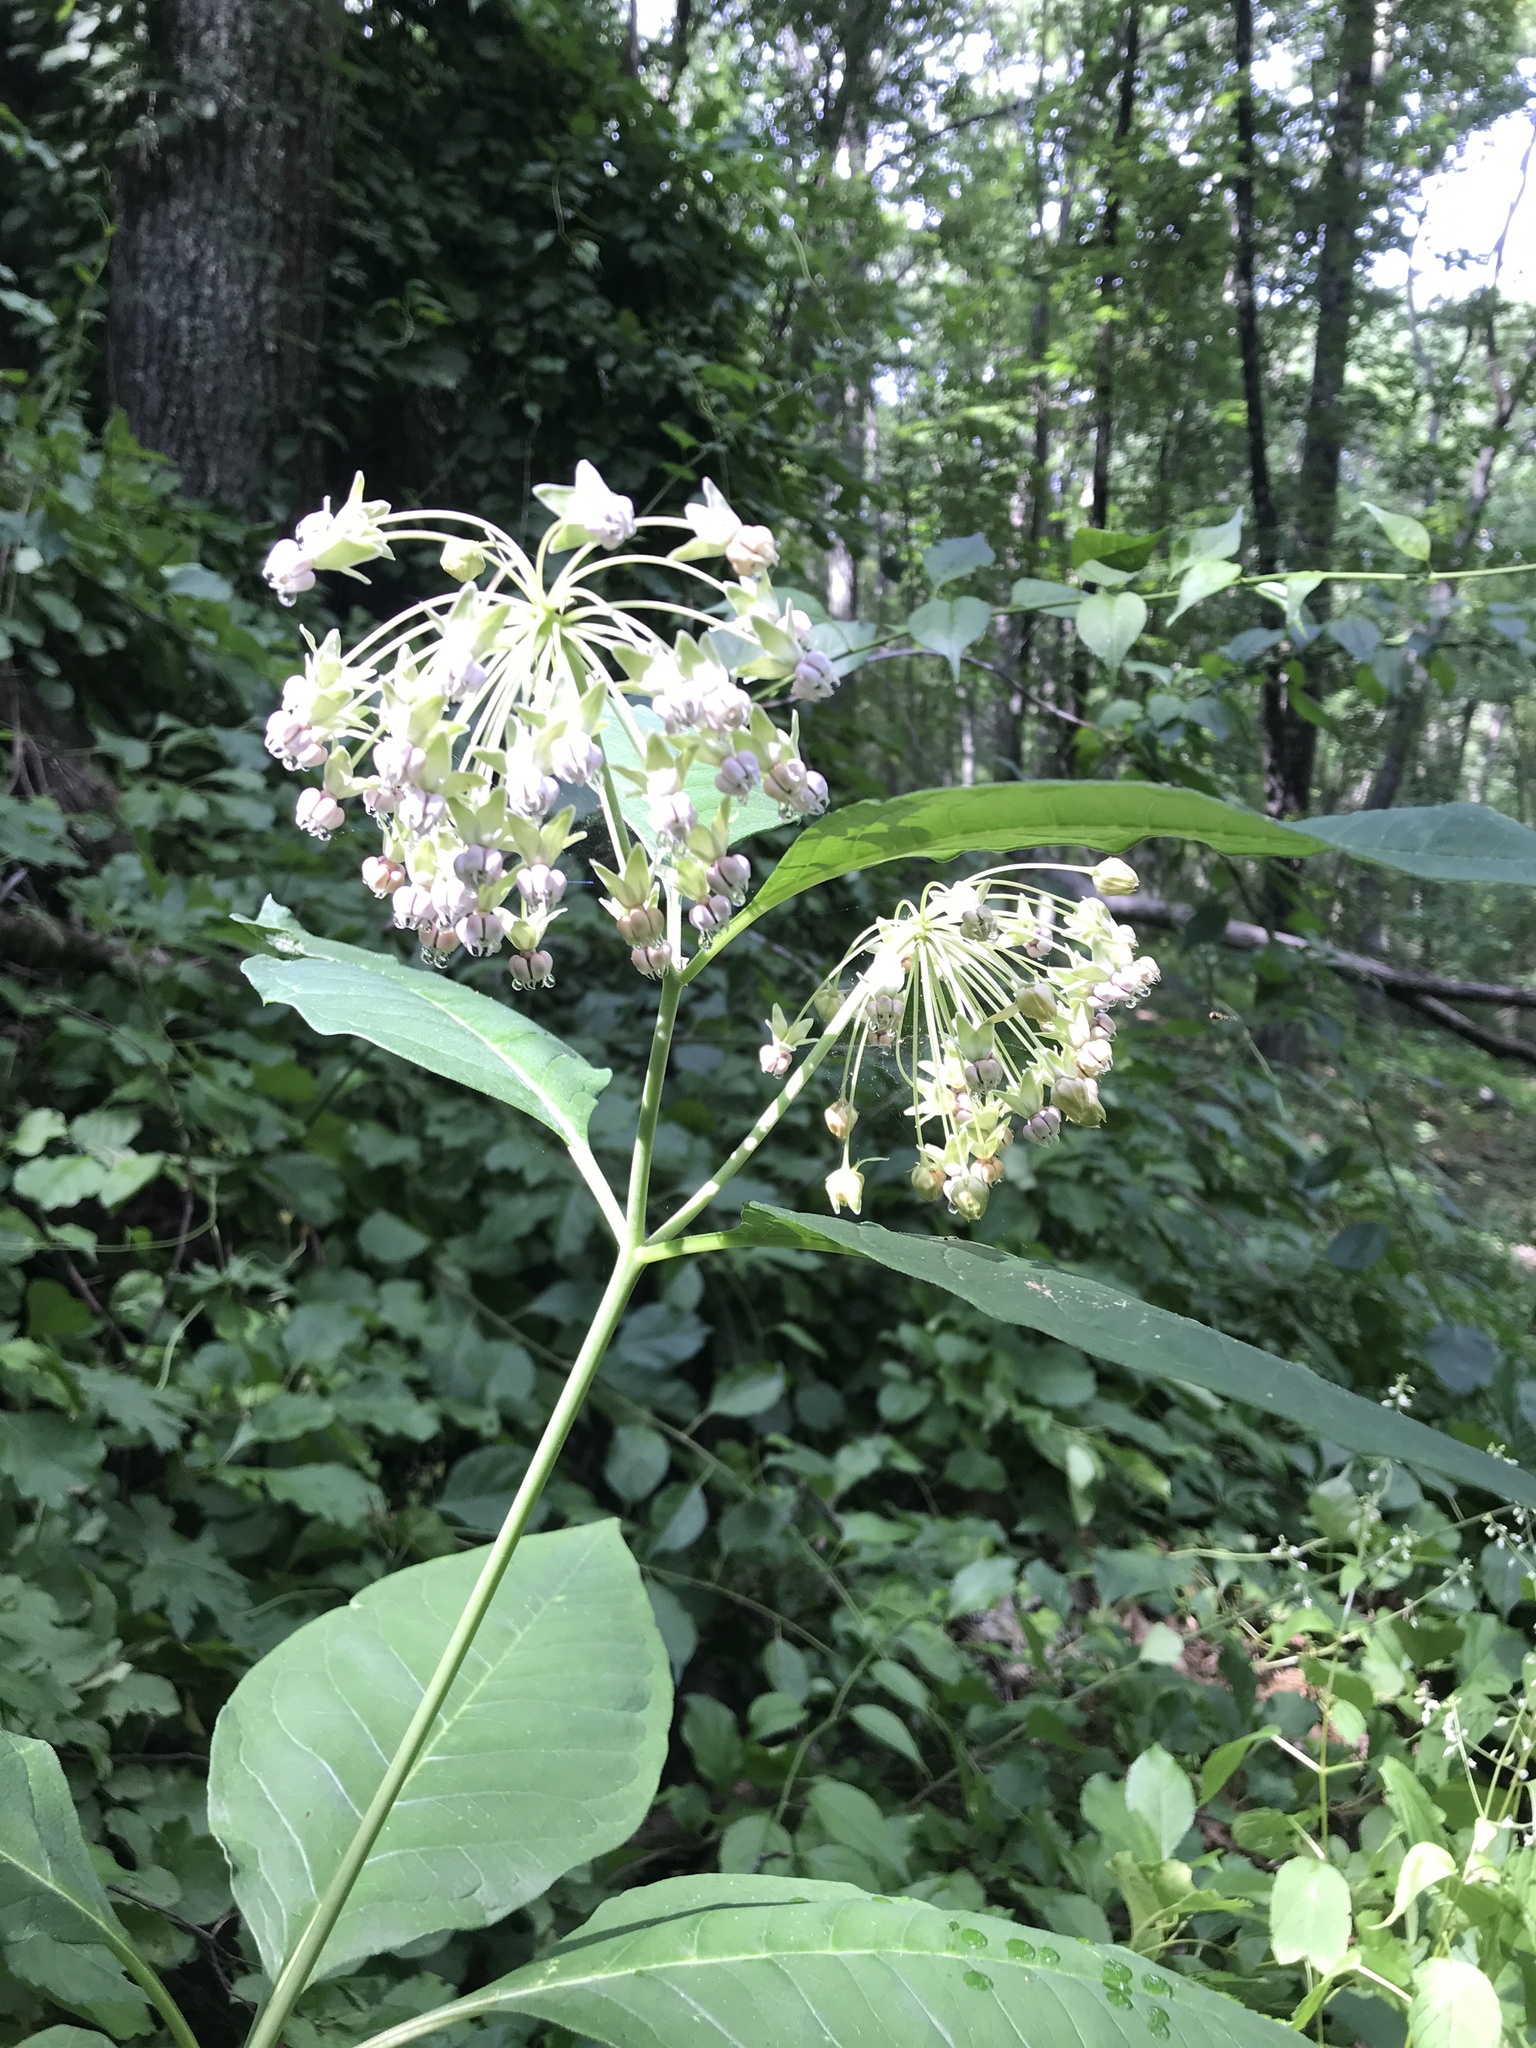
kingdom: Plantae
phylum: Tracheophyta
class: Magnoliopsida
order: Gentianales
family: Apocynaceae
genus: Asclepias
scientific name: Asclepias exaltata
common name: Poke milkweed
